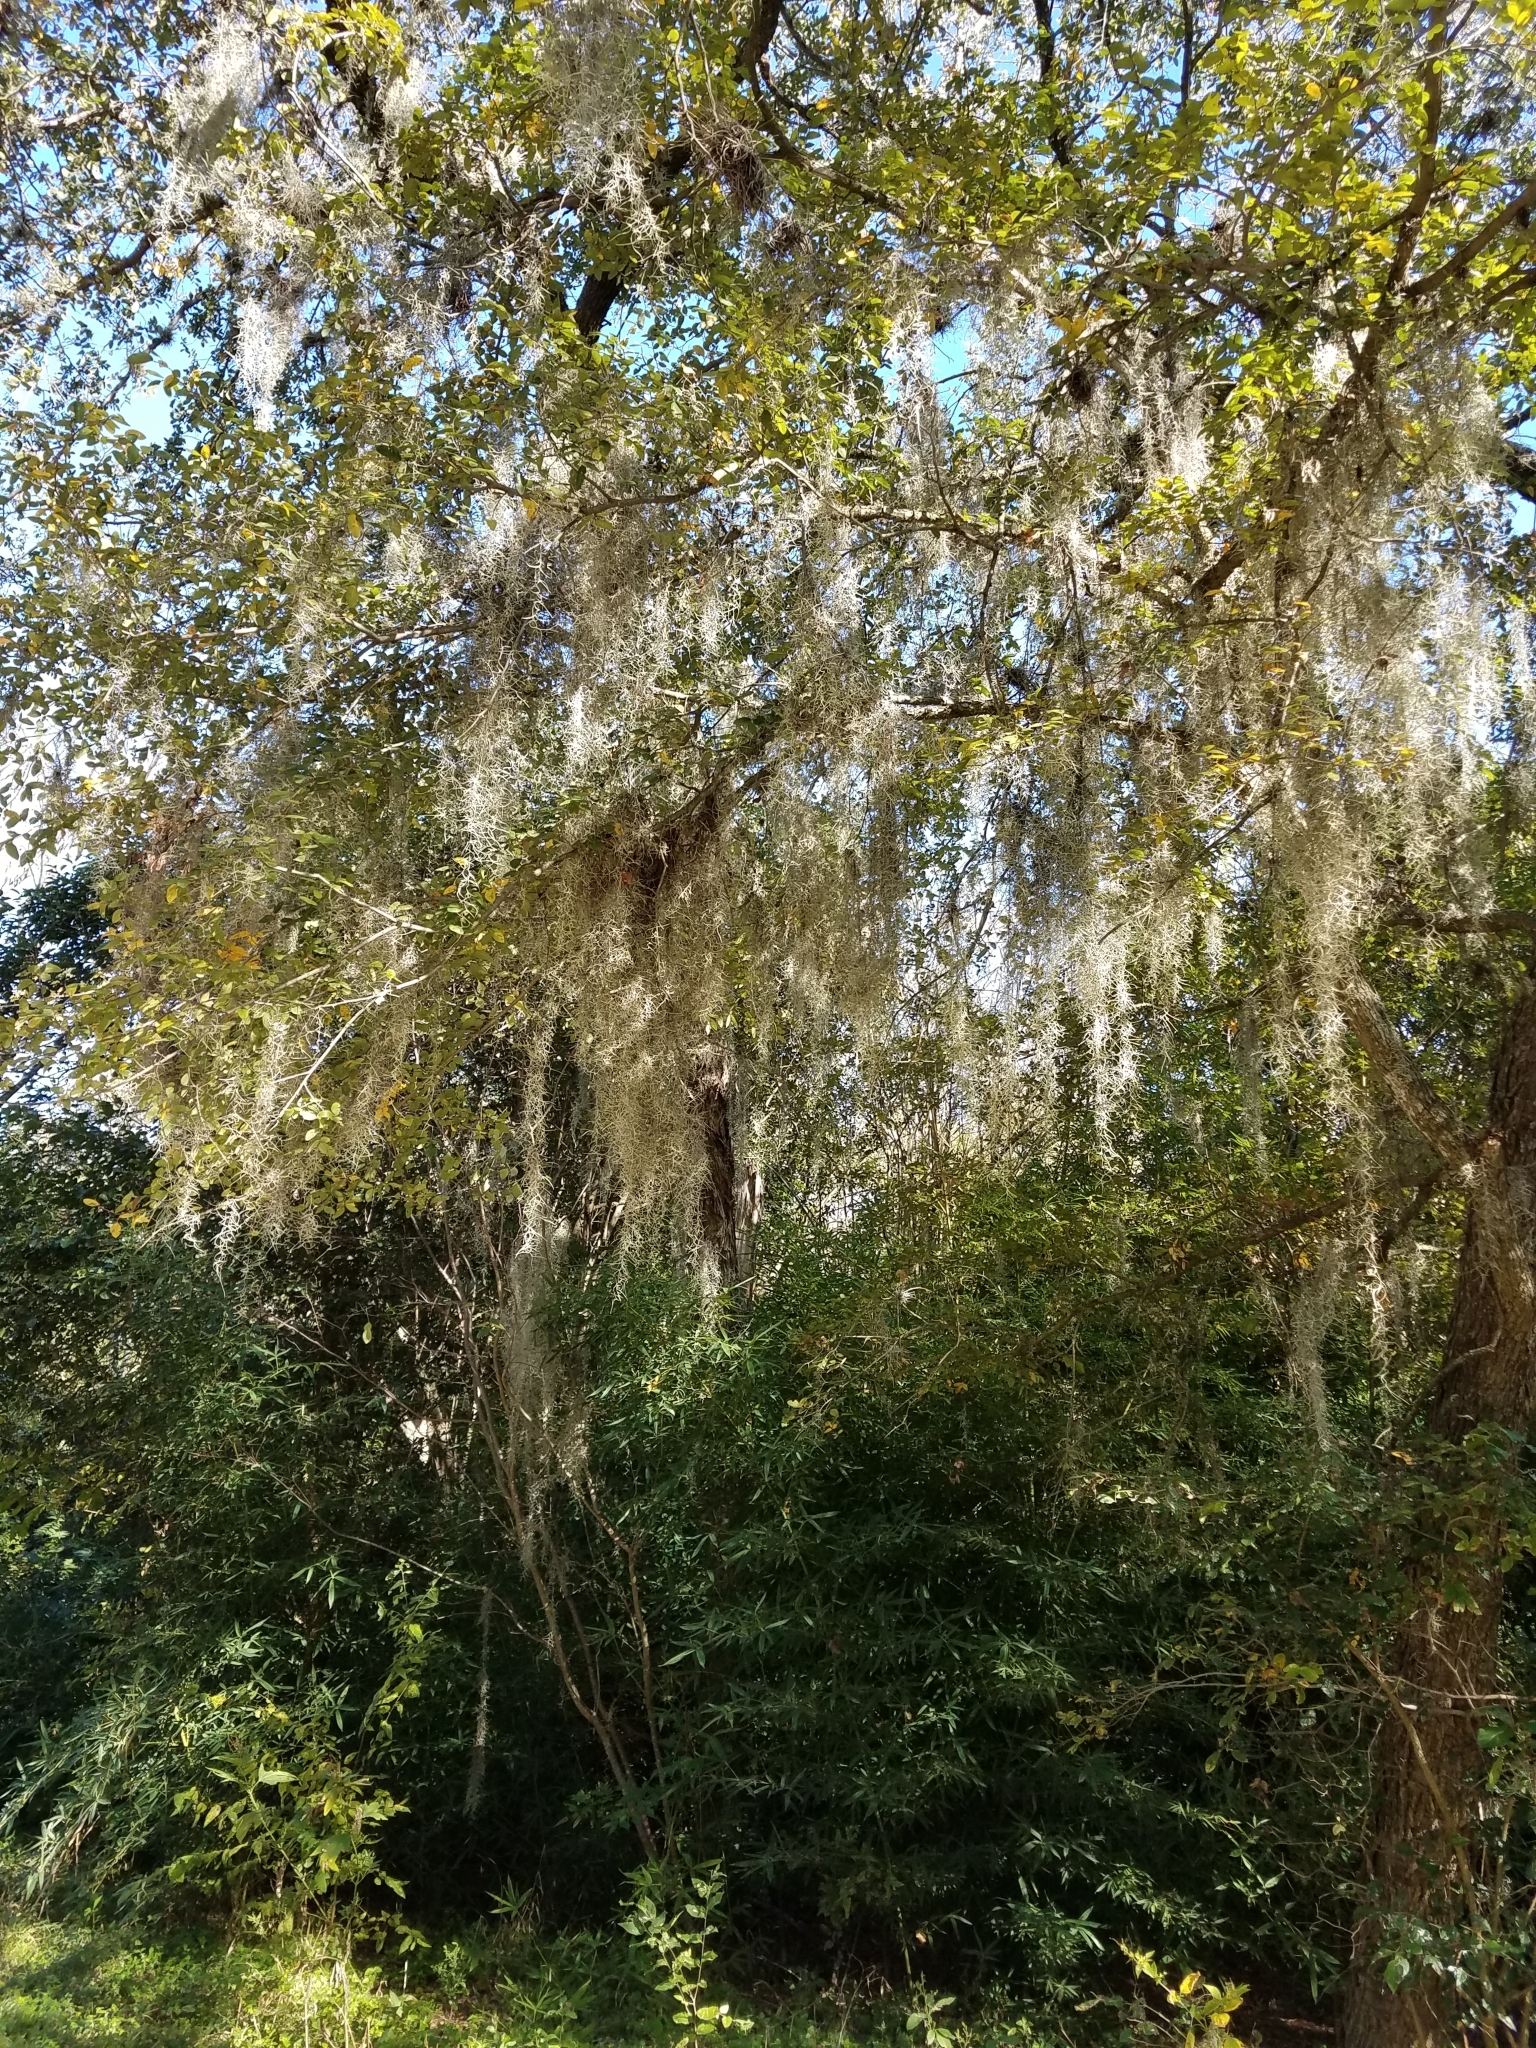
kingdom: Plantae
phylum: Tracheophyta
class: Liliopsida
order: Poales
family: Bromeliaceae
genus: Tillandsia
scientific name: Tillandsia usneoides
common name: Spanish moss
